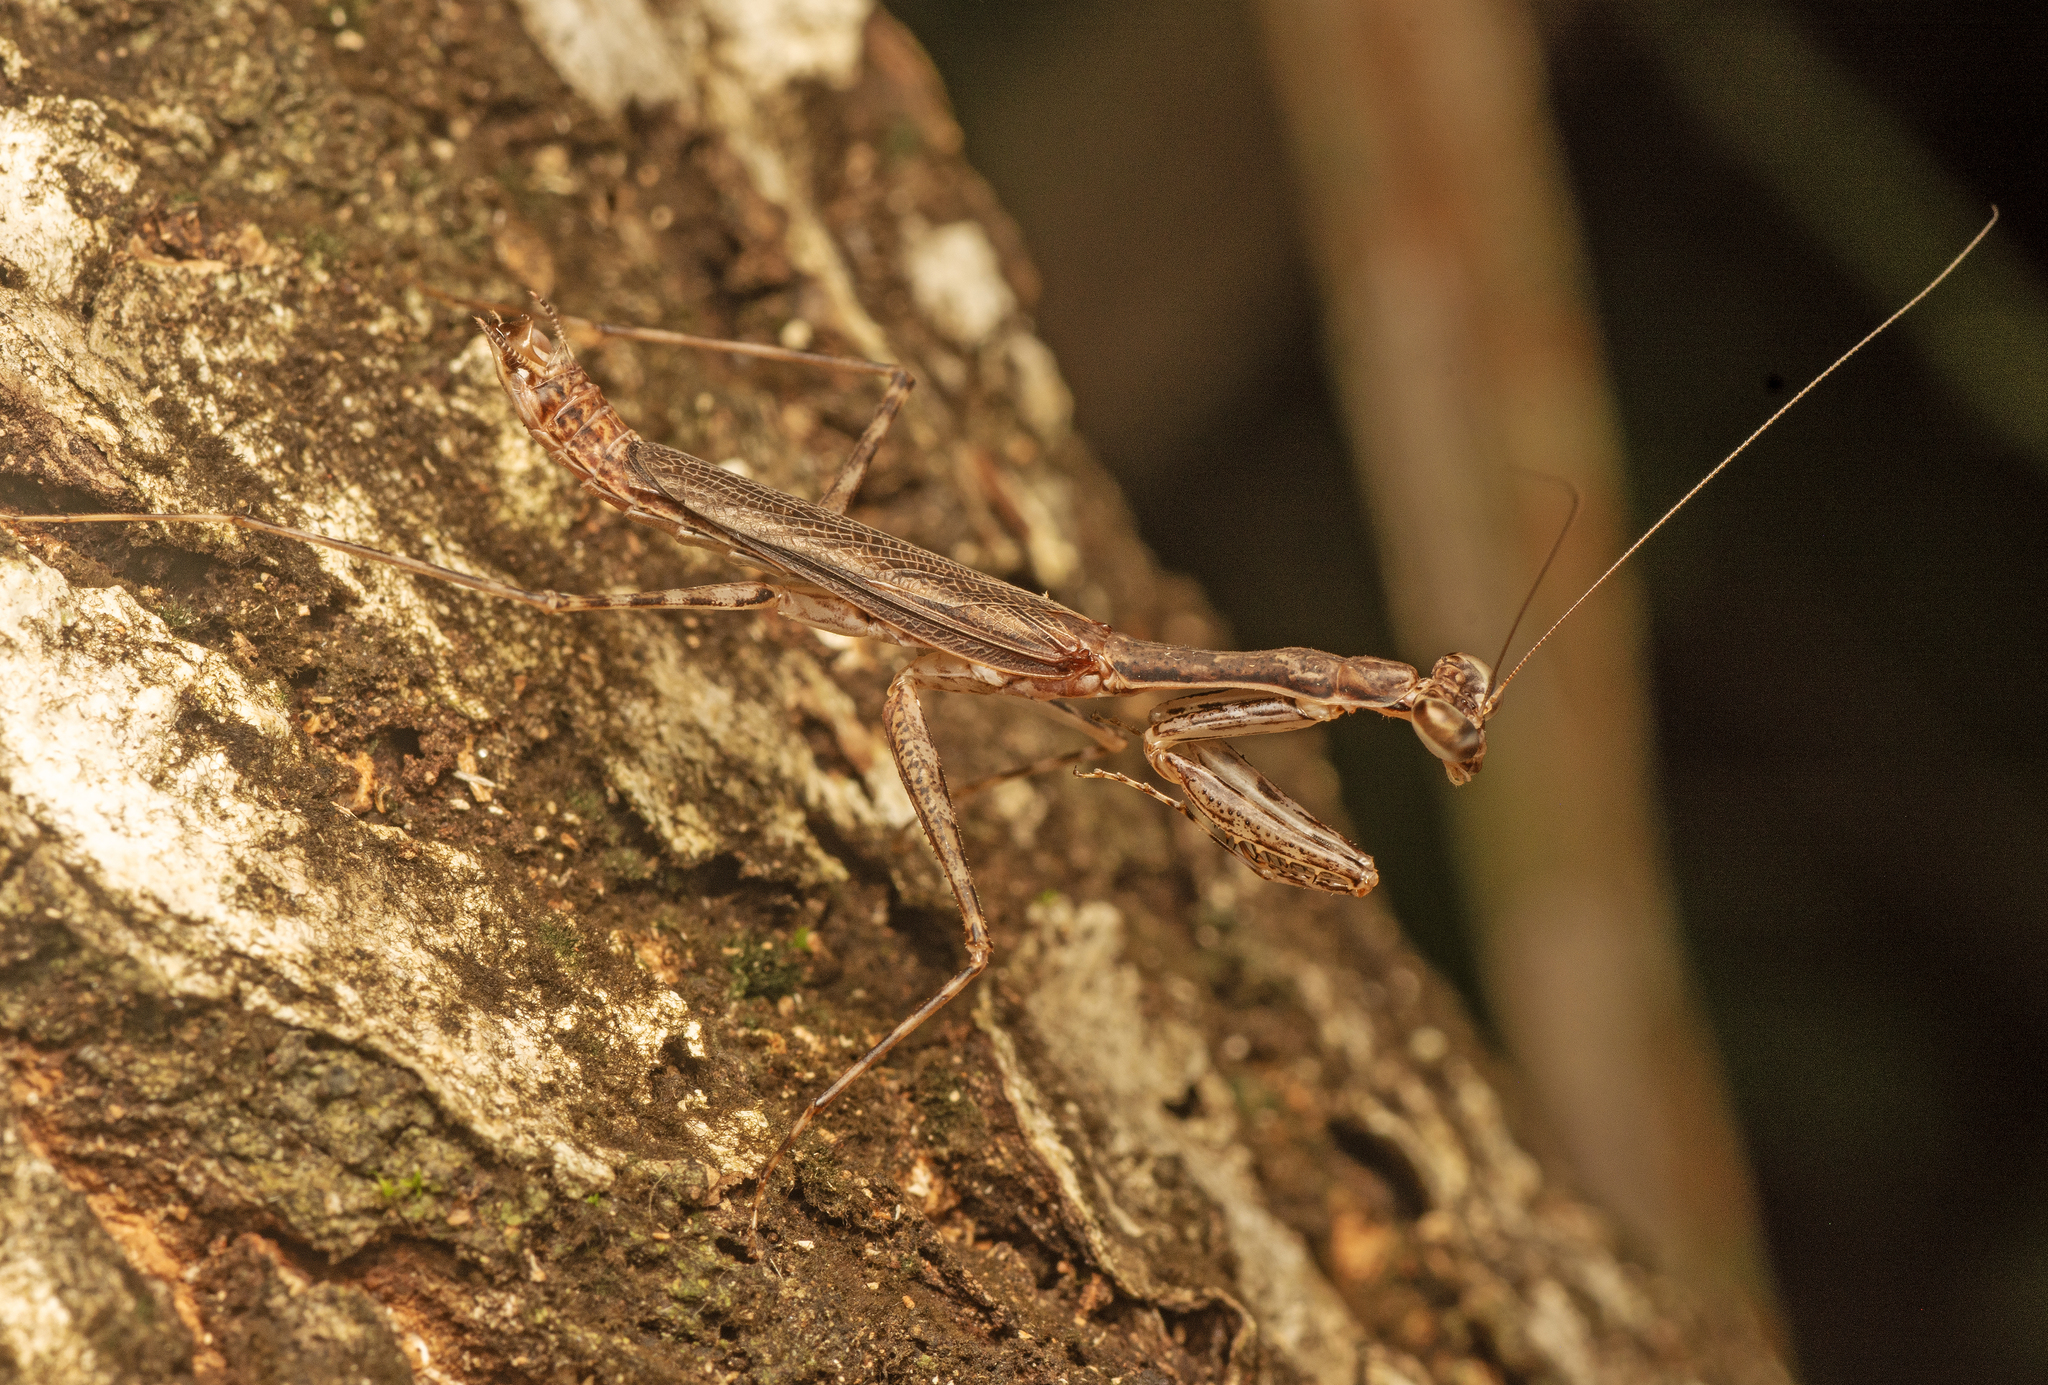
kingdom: Animalia
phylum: Arthropoda
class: Insecta
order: Mantodea
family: Nanomantidae
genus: Ciulfina
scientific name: Ciulfina ianrichardi
